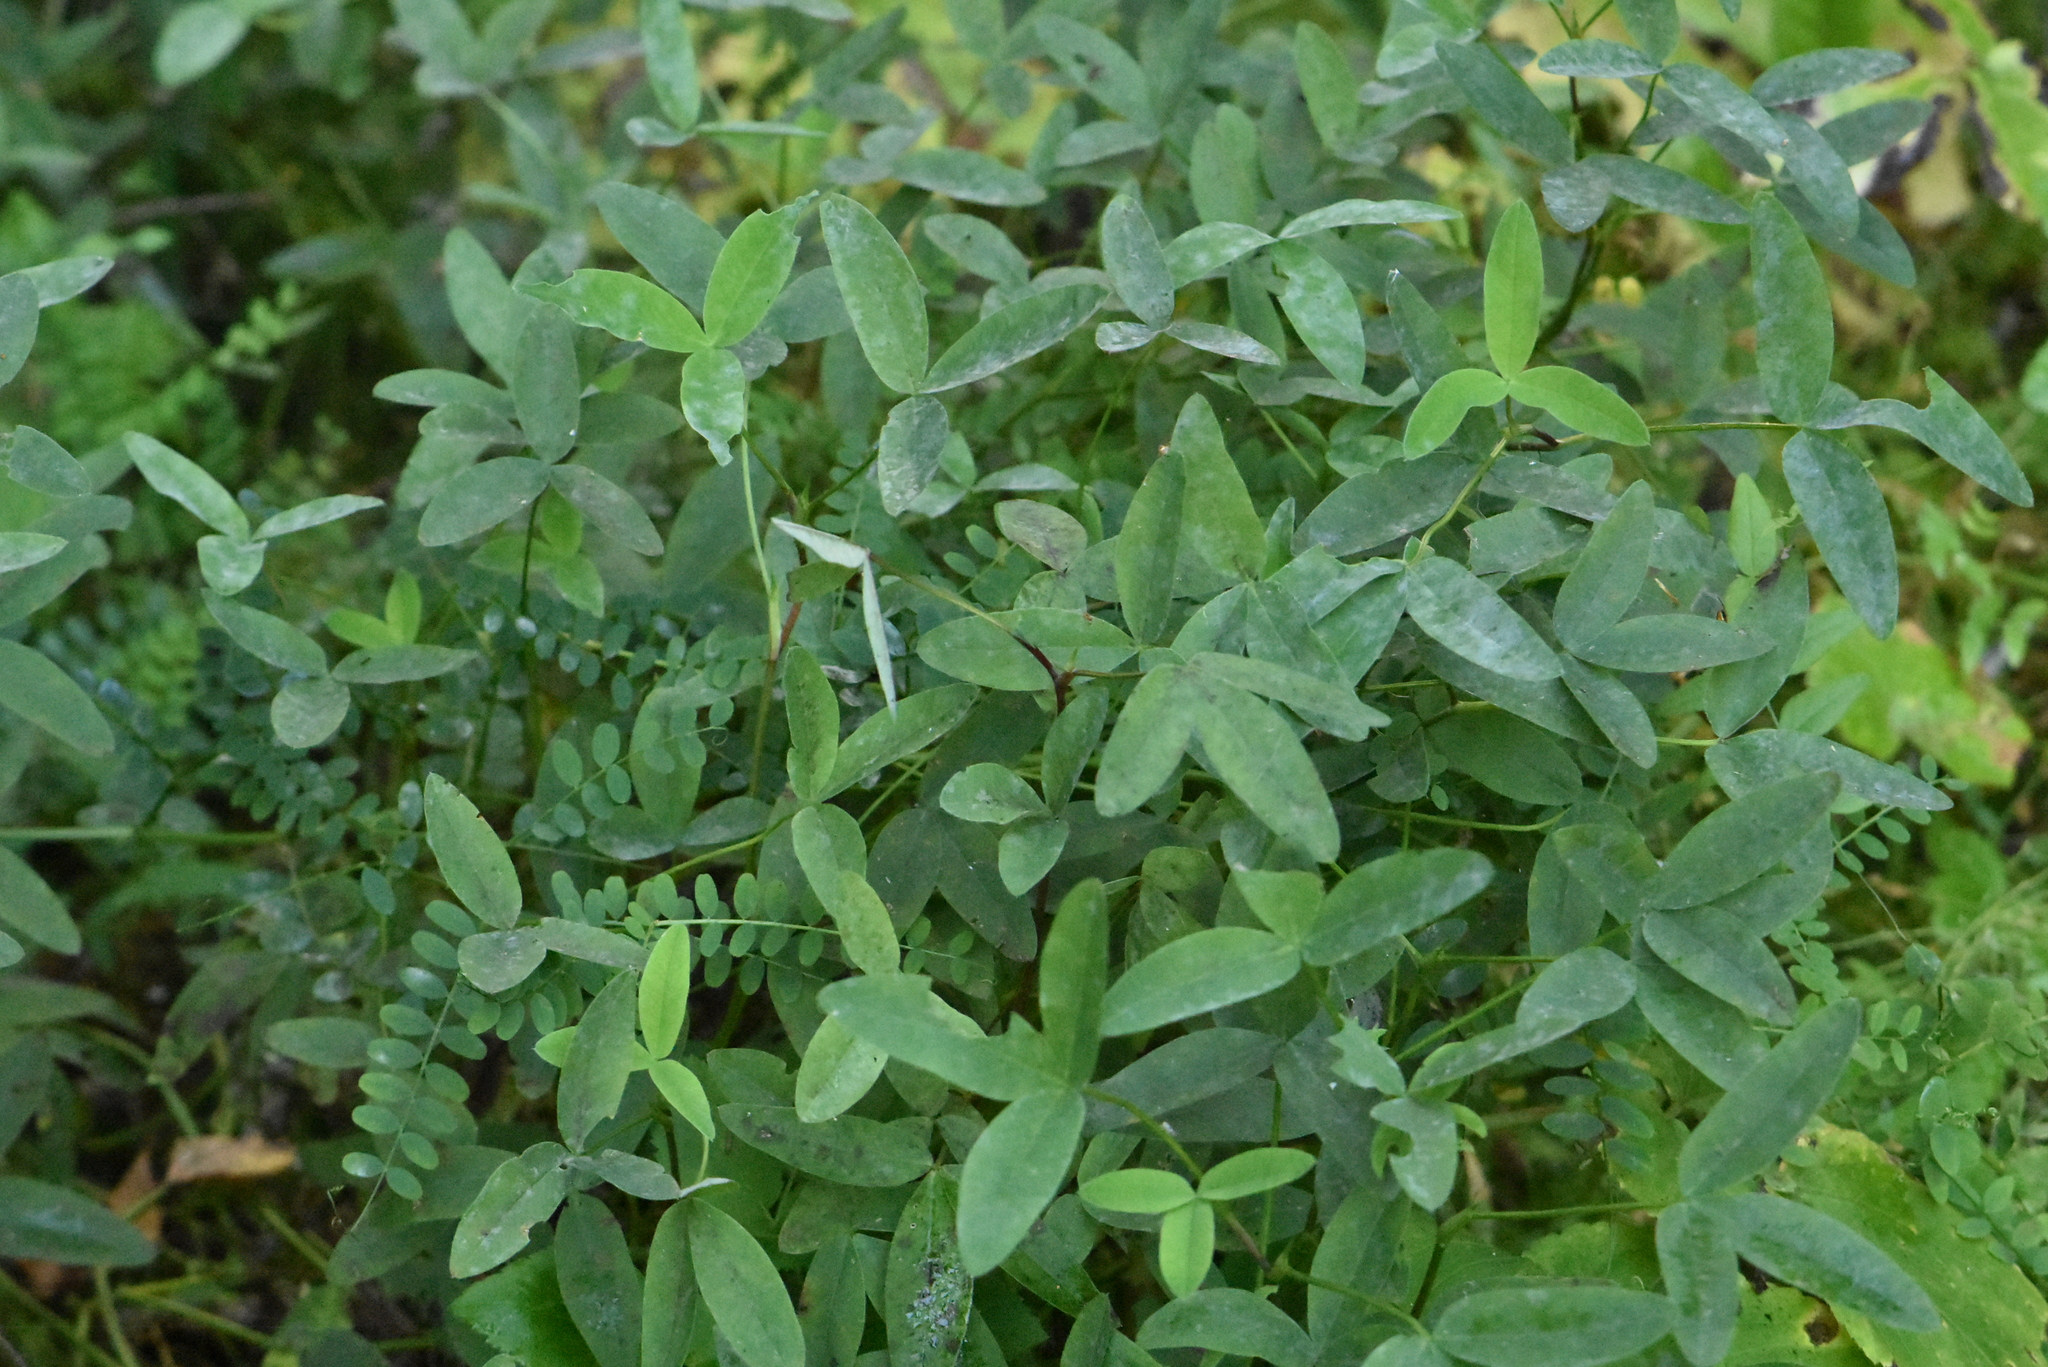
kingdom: Plantae
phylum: Tracheophyta
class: Magnoliopsida
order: Fabales
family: Fabaceae
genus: Trifolium
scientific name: Trifolium medium
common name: Zigzag clover
